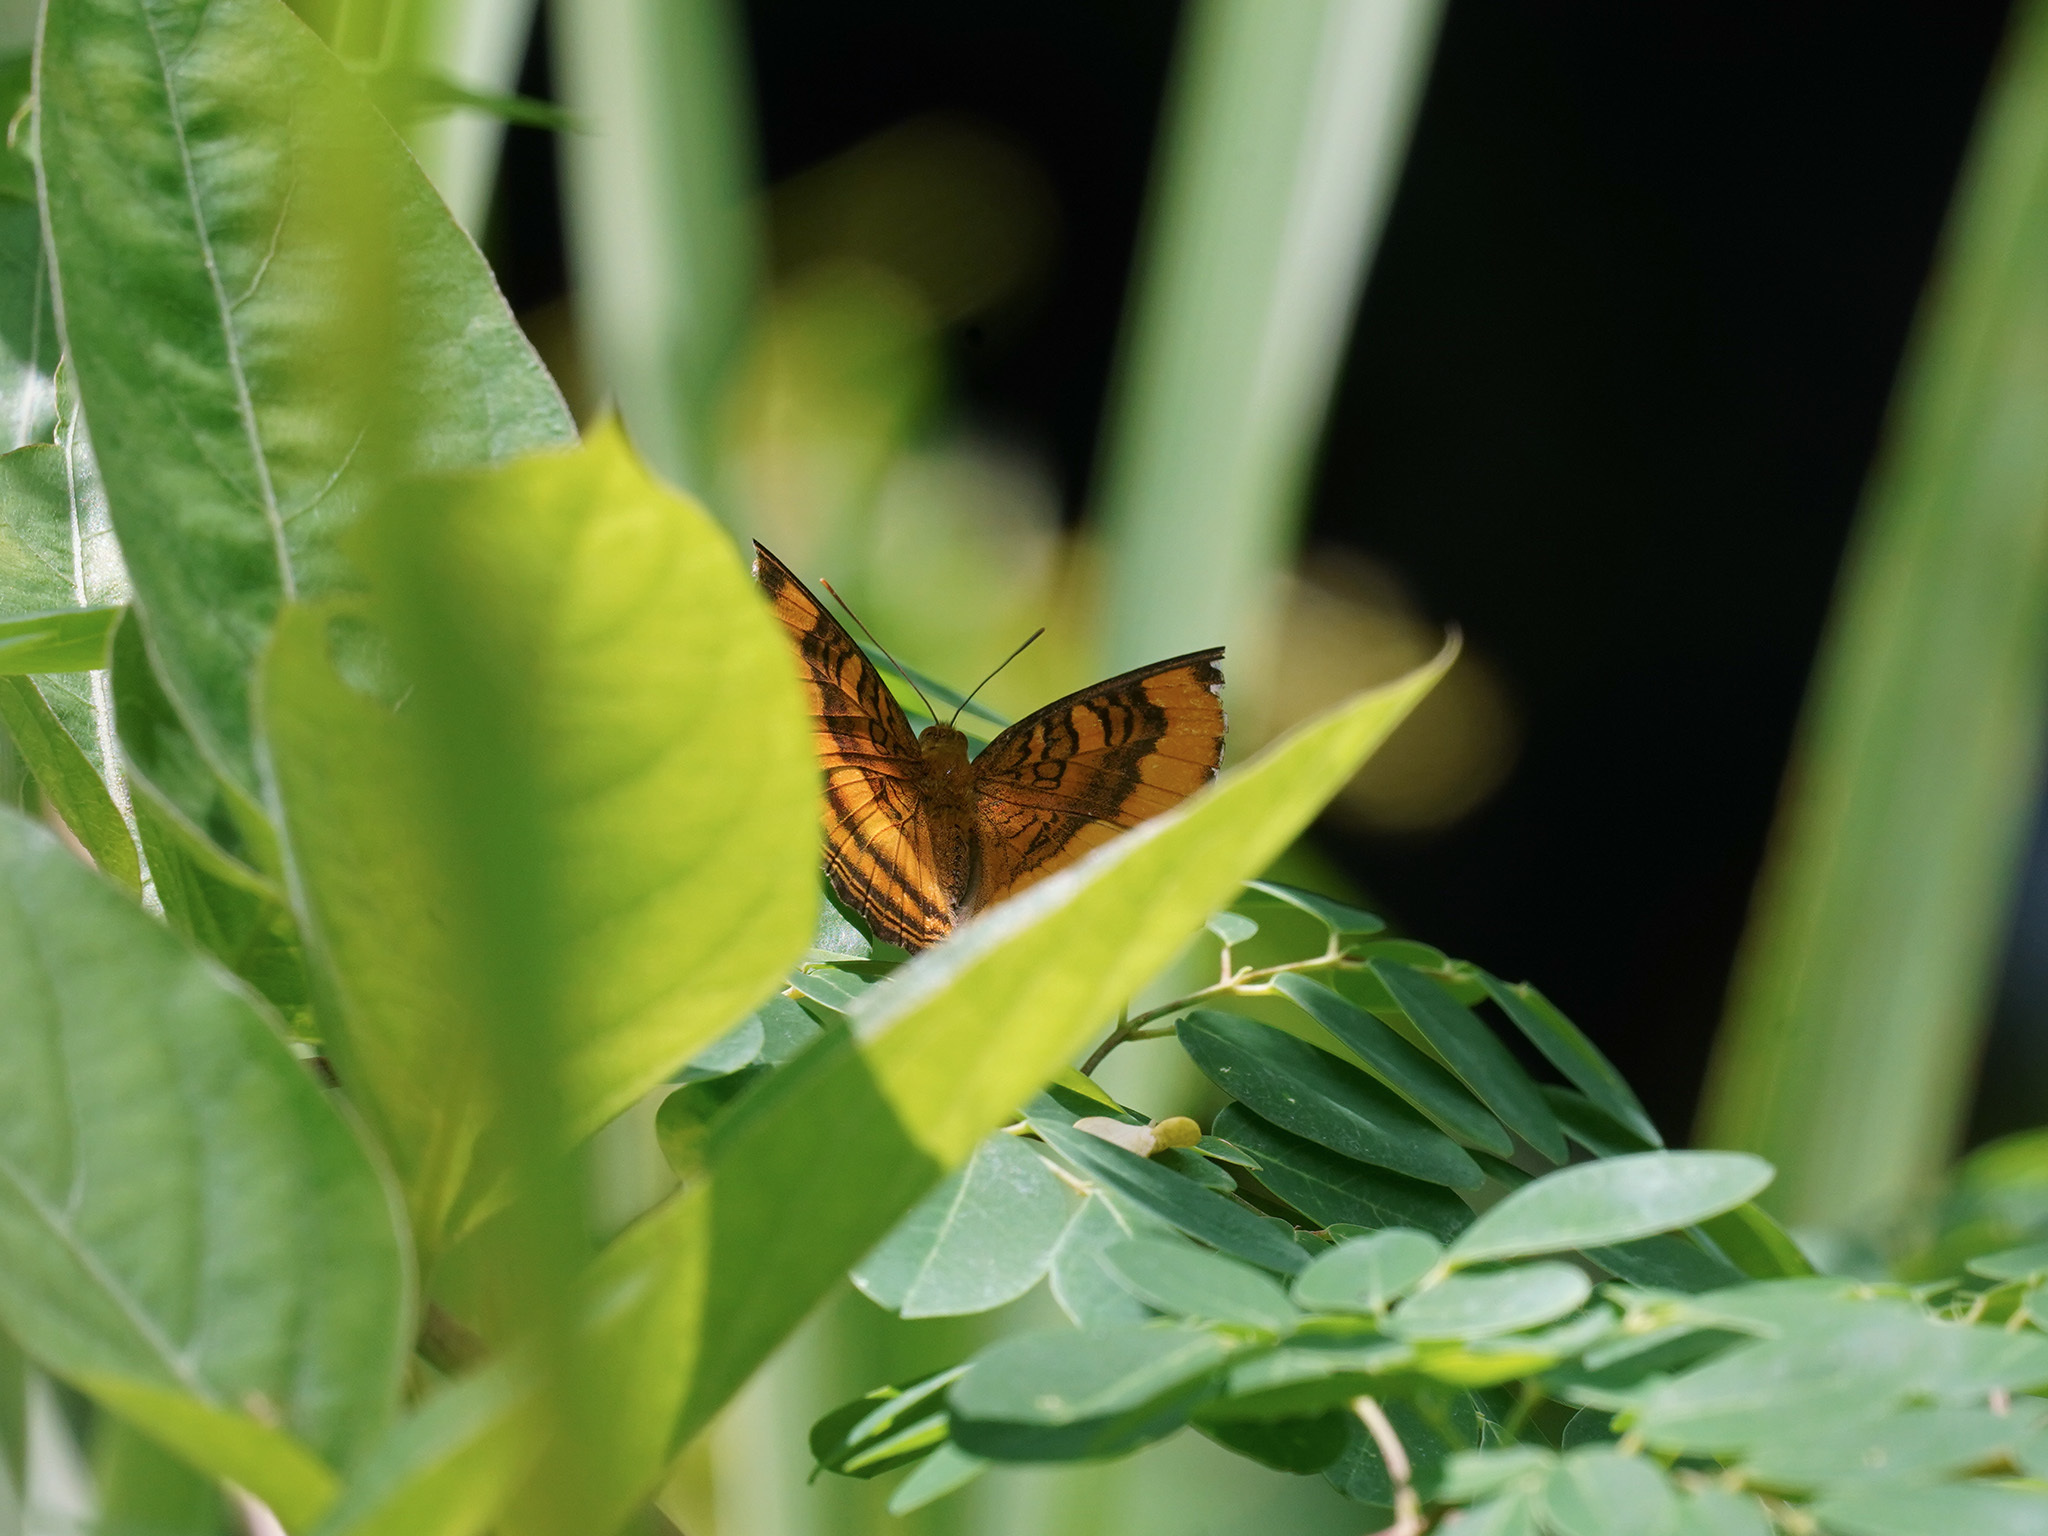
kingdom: Animalia
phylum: Arthropoda
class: Insecta
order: Lepidoptera
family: Nymphalidae
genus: Pandita
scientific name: Pandita sinope
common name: Colonel
